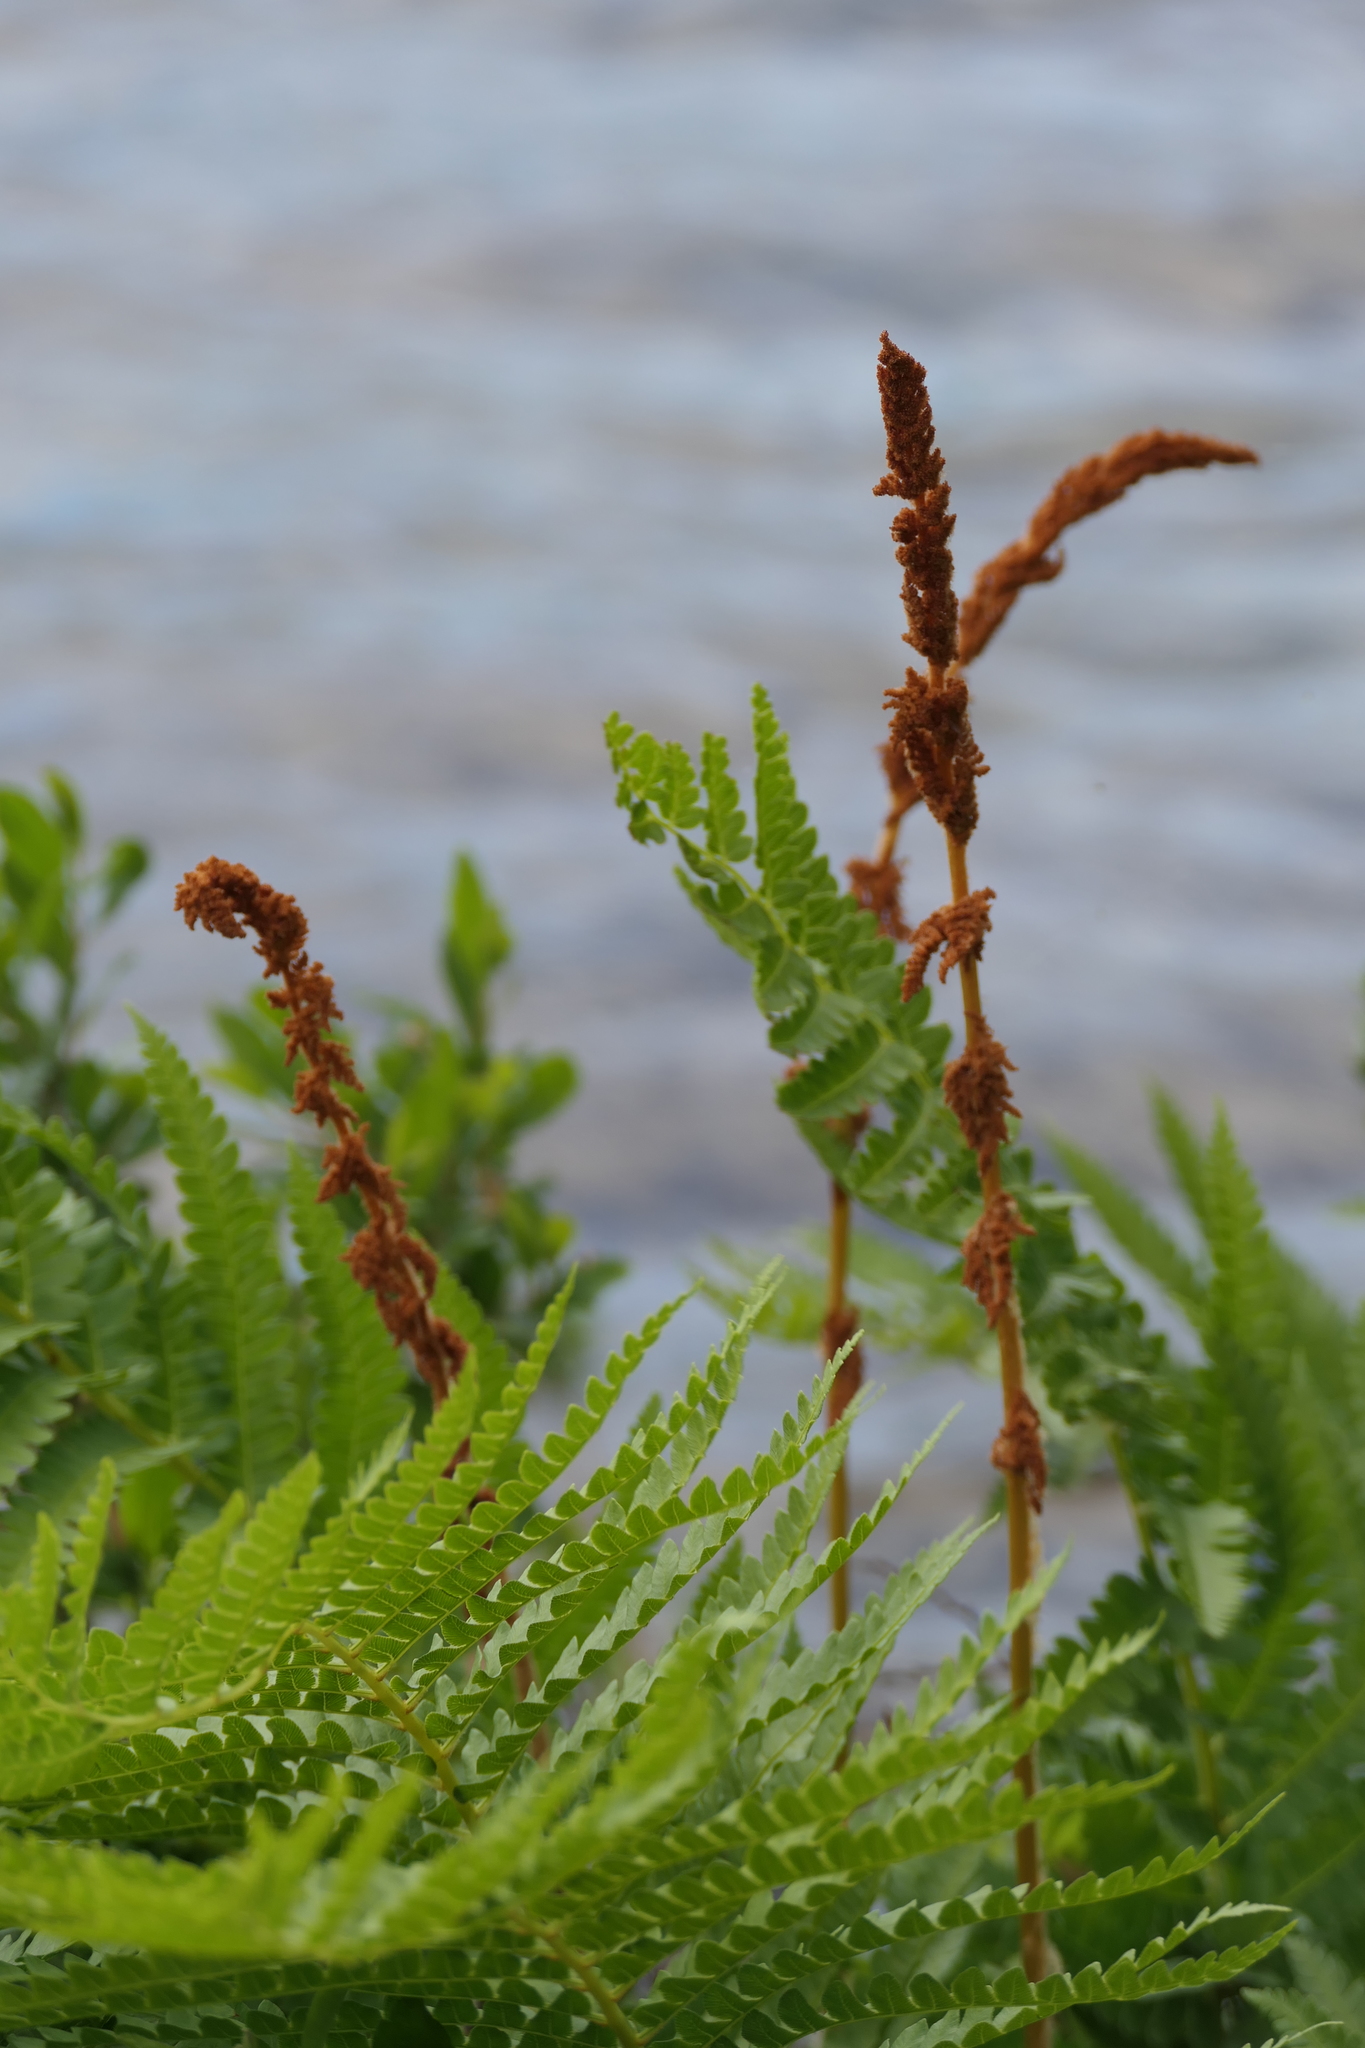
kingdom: Plantae
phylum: Tracheophyta
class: Polypodiopsida
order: Osmundales
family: Osmundaceae
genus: Osmundastrum
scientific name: Osmundastrum cinnamomeum
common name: Cinnamon fern
